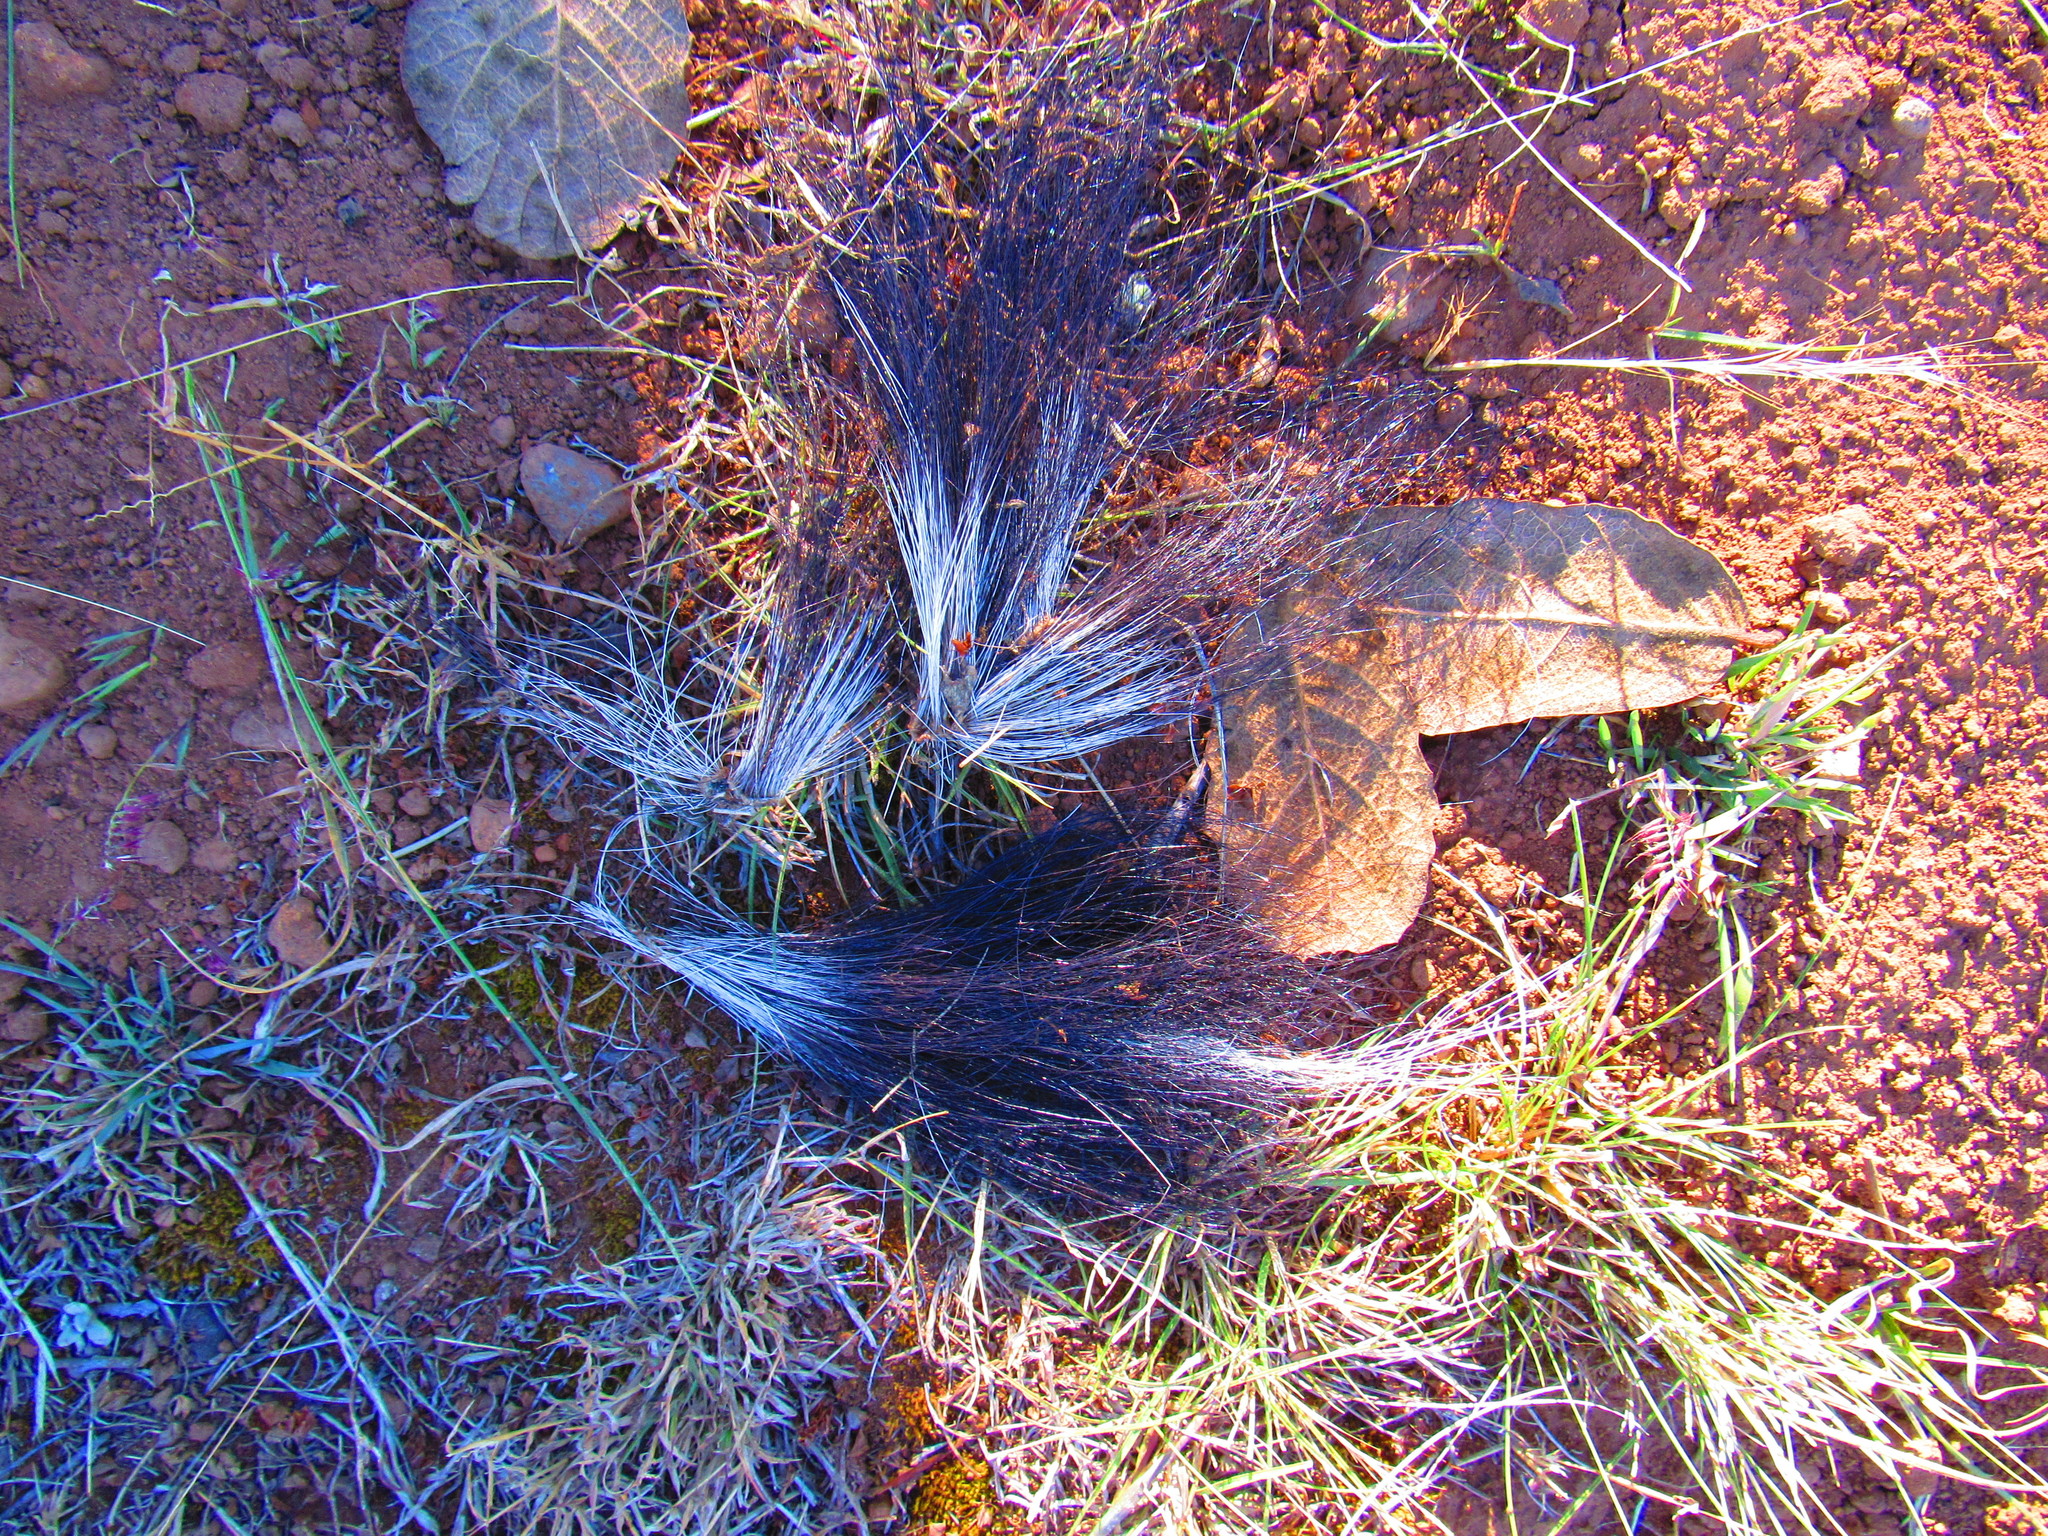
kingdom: Animalia
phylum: Chordata
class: Mammalia
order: Carnivora
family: Mephitidae
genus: Mephitis
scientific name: Mephitis macroura
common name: Hooded skunk
